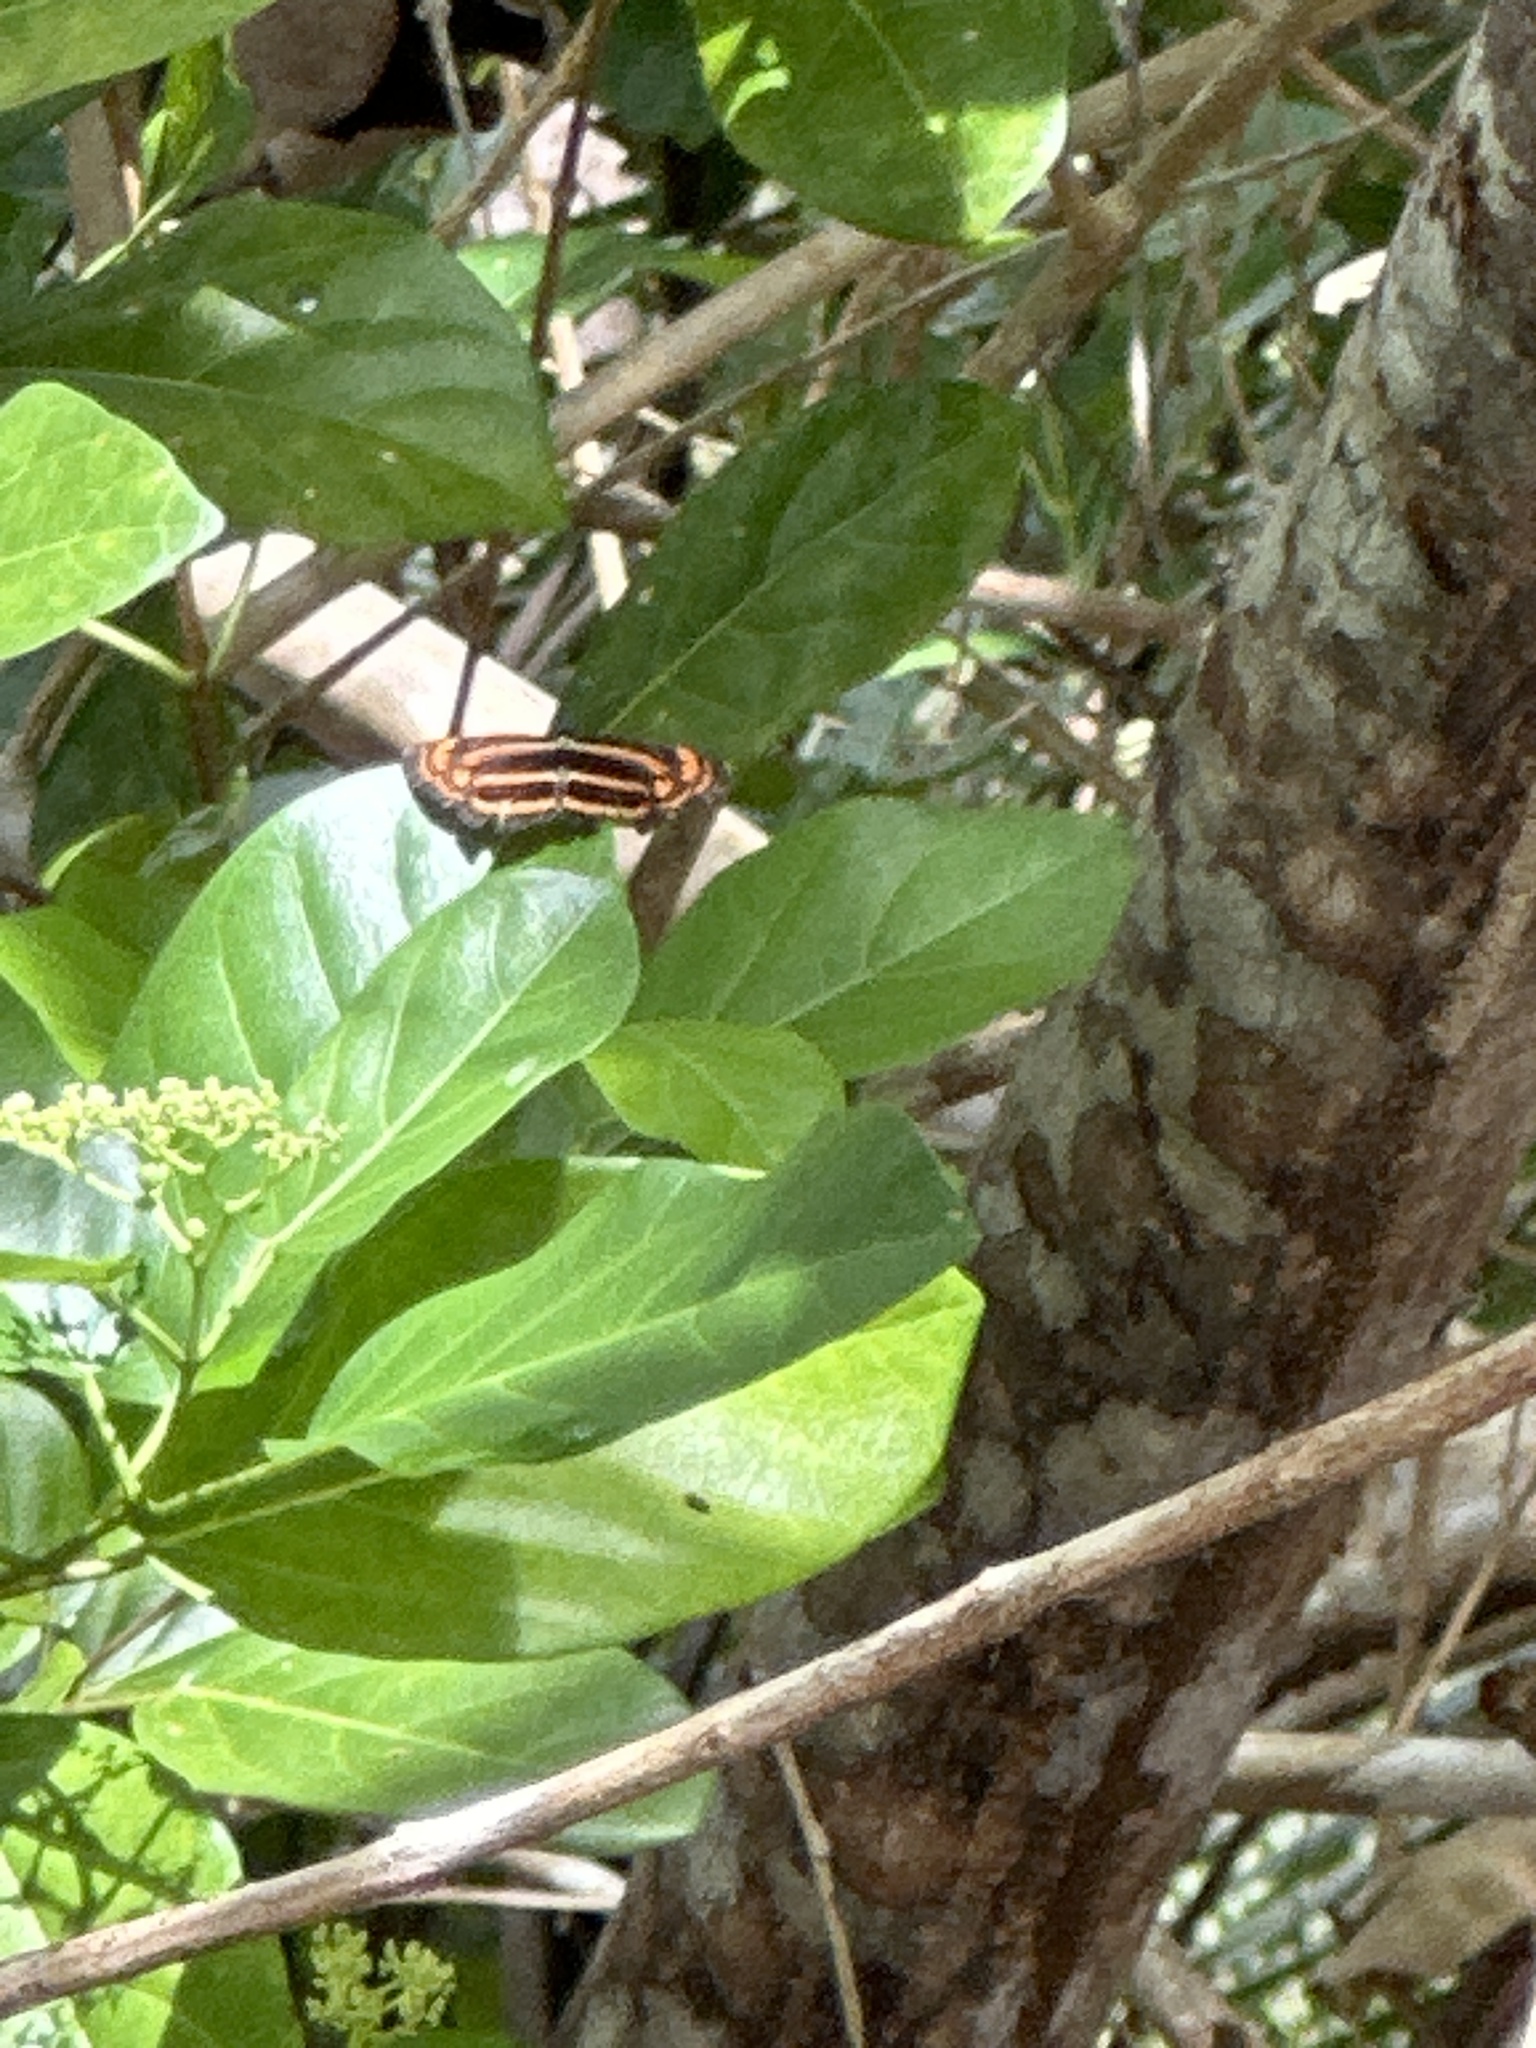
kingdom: Animalia
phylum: Arthropoda
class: Insecta
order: Lepidoptera
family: Nymphalidae
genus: Pantoporia
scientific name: Pantoporia antara
